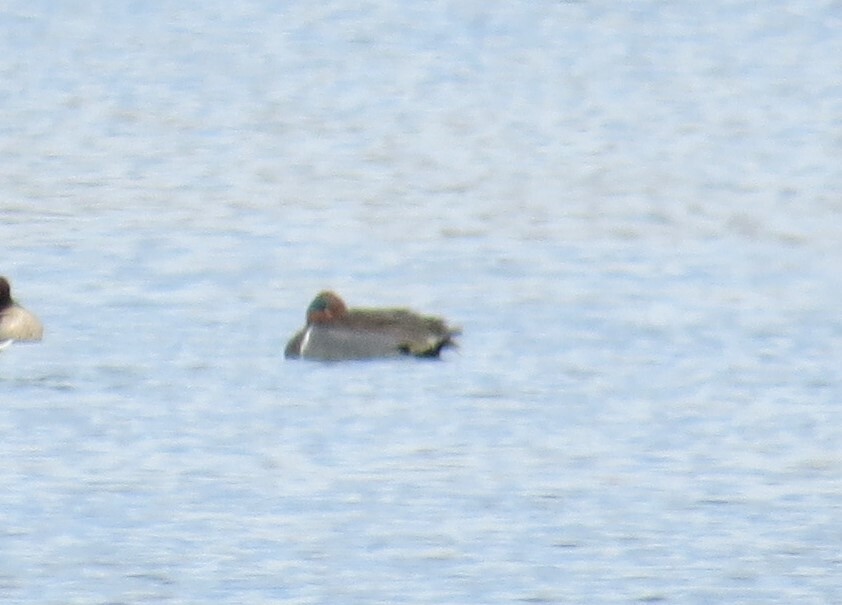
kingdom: Animalia
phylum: Chordata
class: Aves
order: Anseriformes
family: Anatidae
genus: Anas
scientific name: Anas crecca
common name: Eurasian teal
